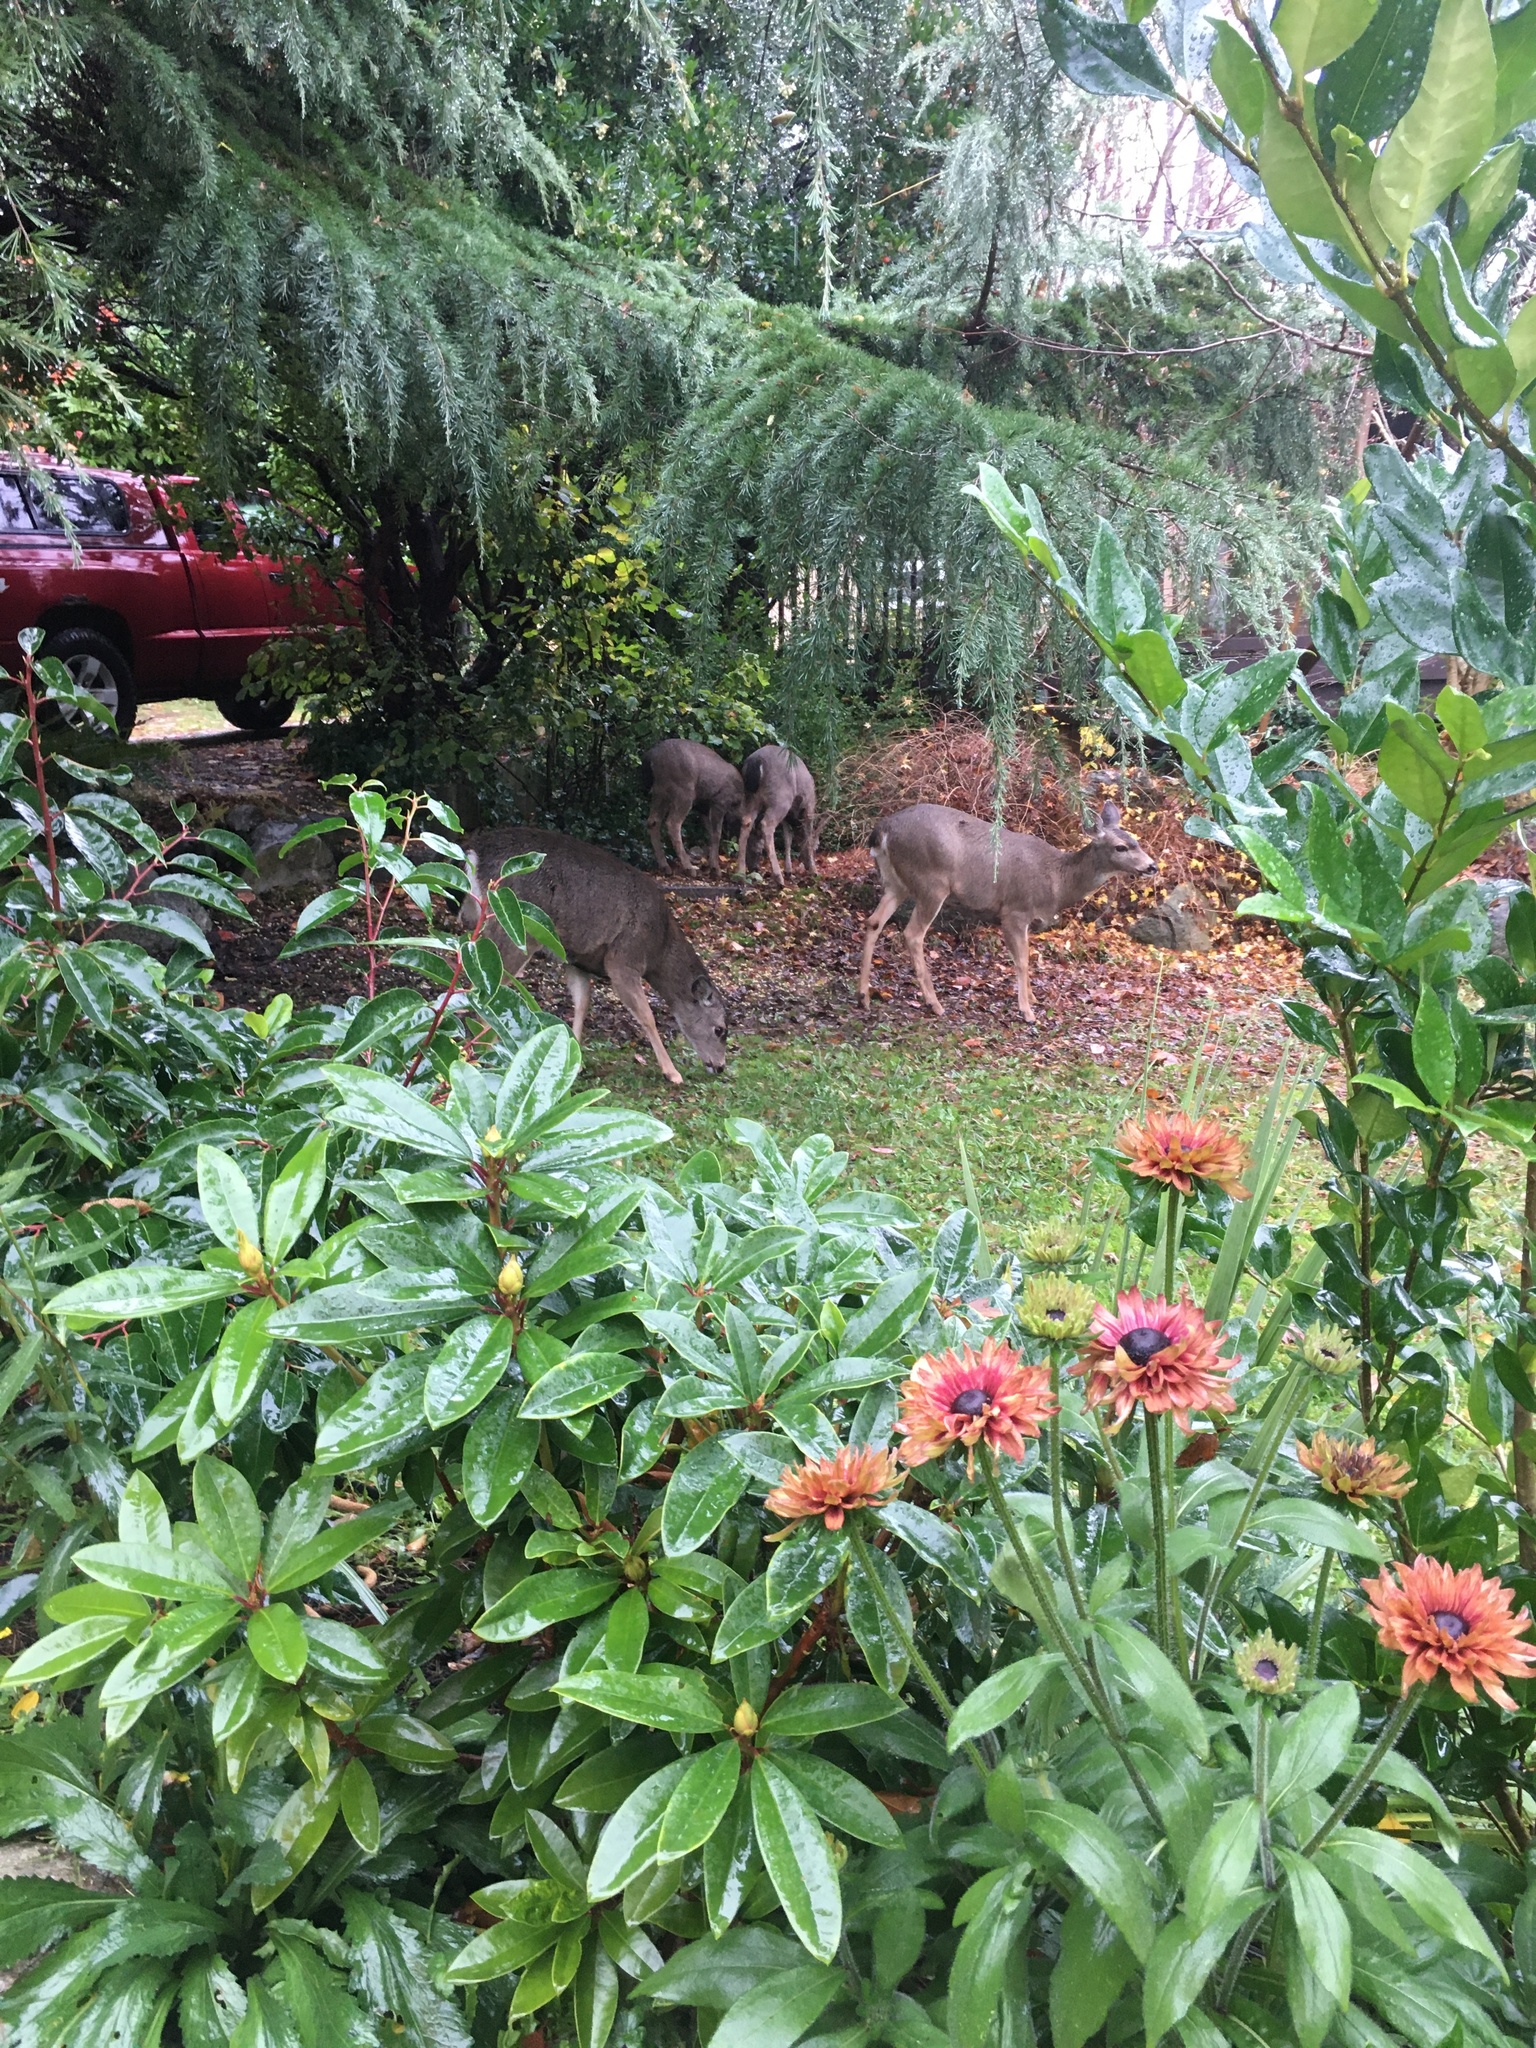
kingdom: Animalia
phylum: Chordata
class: Mammalia
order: Artiodactyla
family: Cervidae
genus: Odocoileus
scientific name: Odocoileus hemionus
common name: Mule deer
